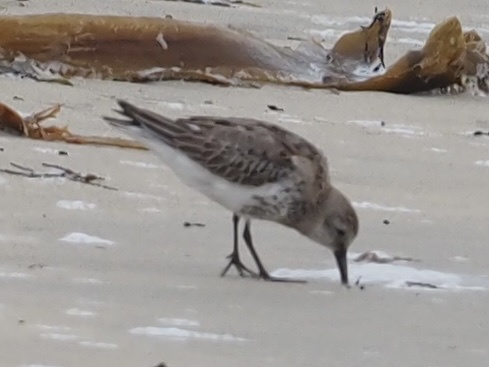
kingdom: Animalia
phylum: Chordata
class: Aves
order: Charadriiformes
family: Scolopacidae
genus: Calidris
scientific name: Calidris alpina
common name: Dunlin
